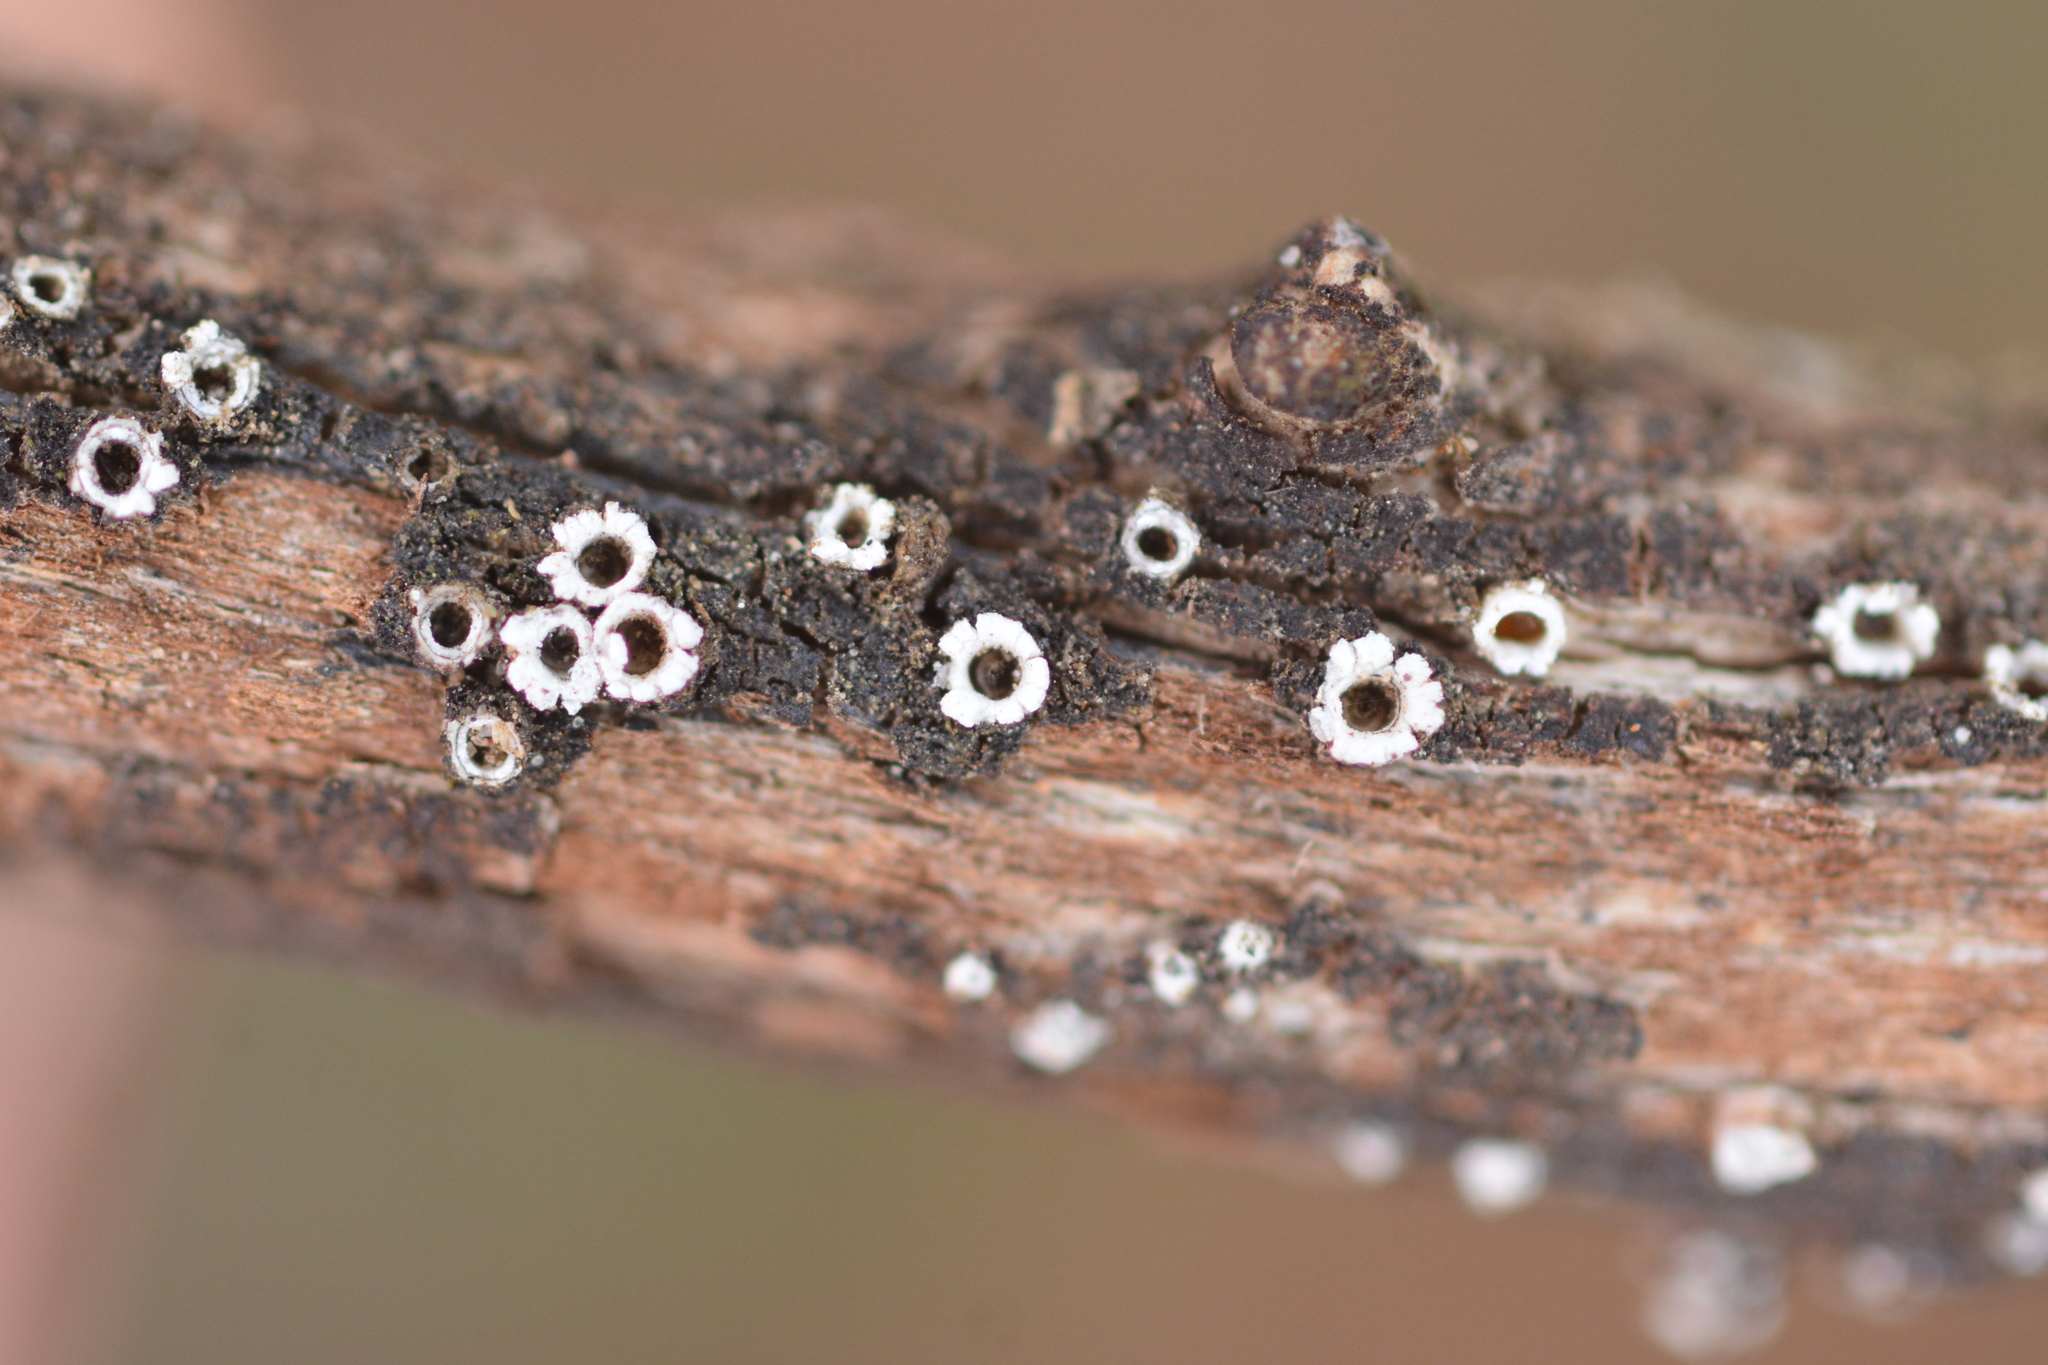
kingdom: Fungi
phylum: Ascomycota
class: Lecanoromycetes
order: Ostropales
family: Stictidaceae
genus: Stictis
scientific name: Stictis radiata
